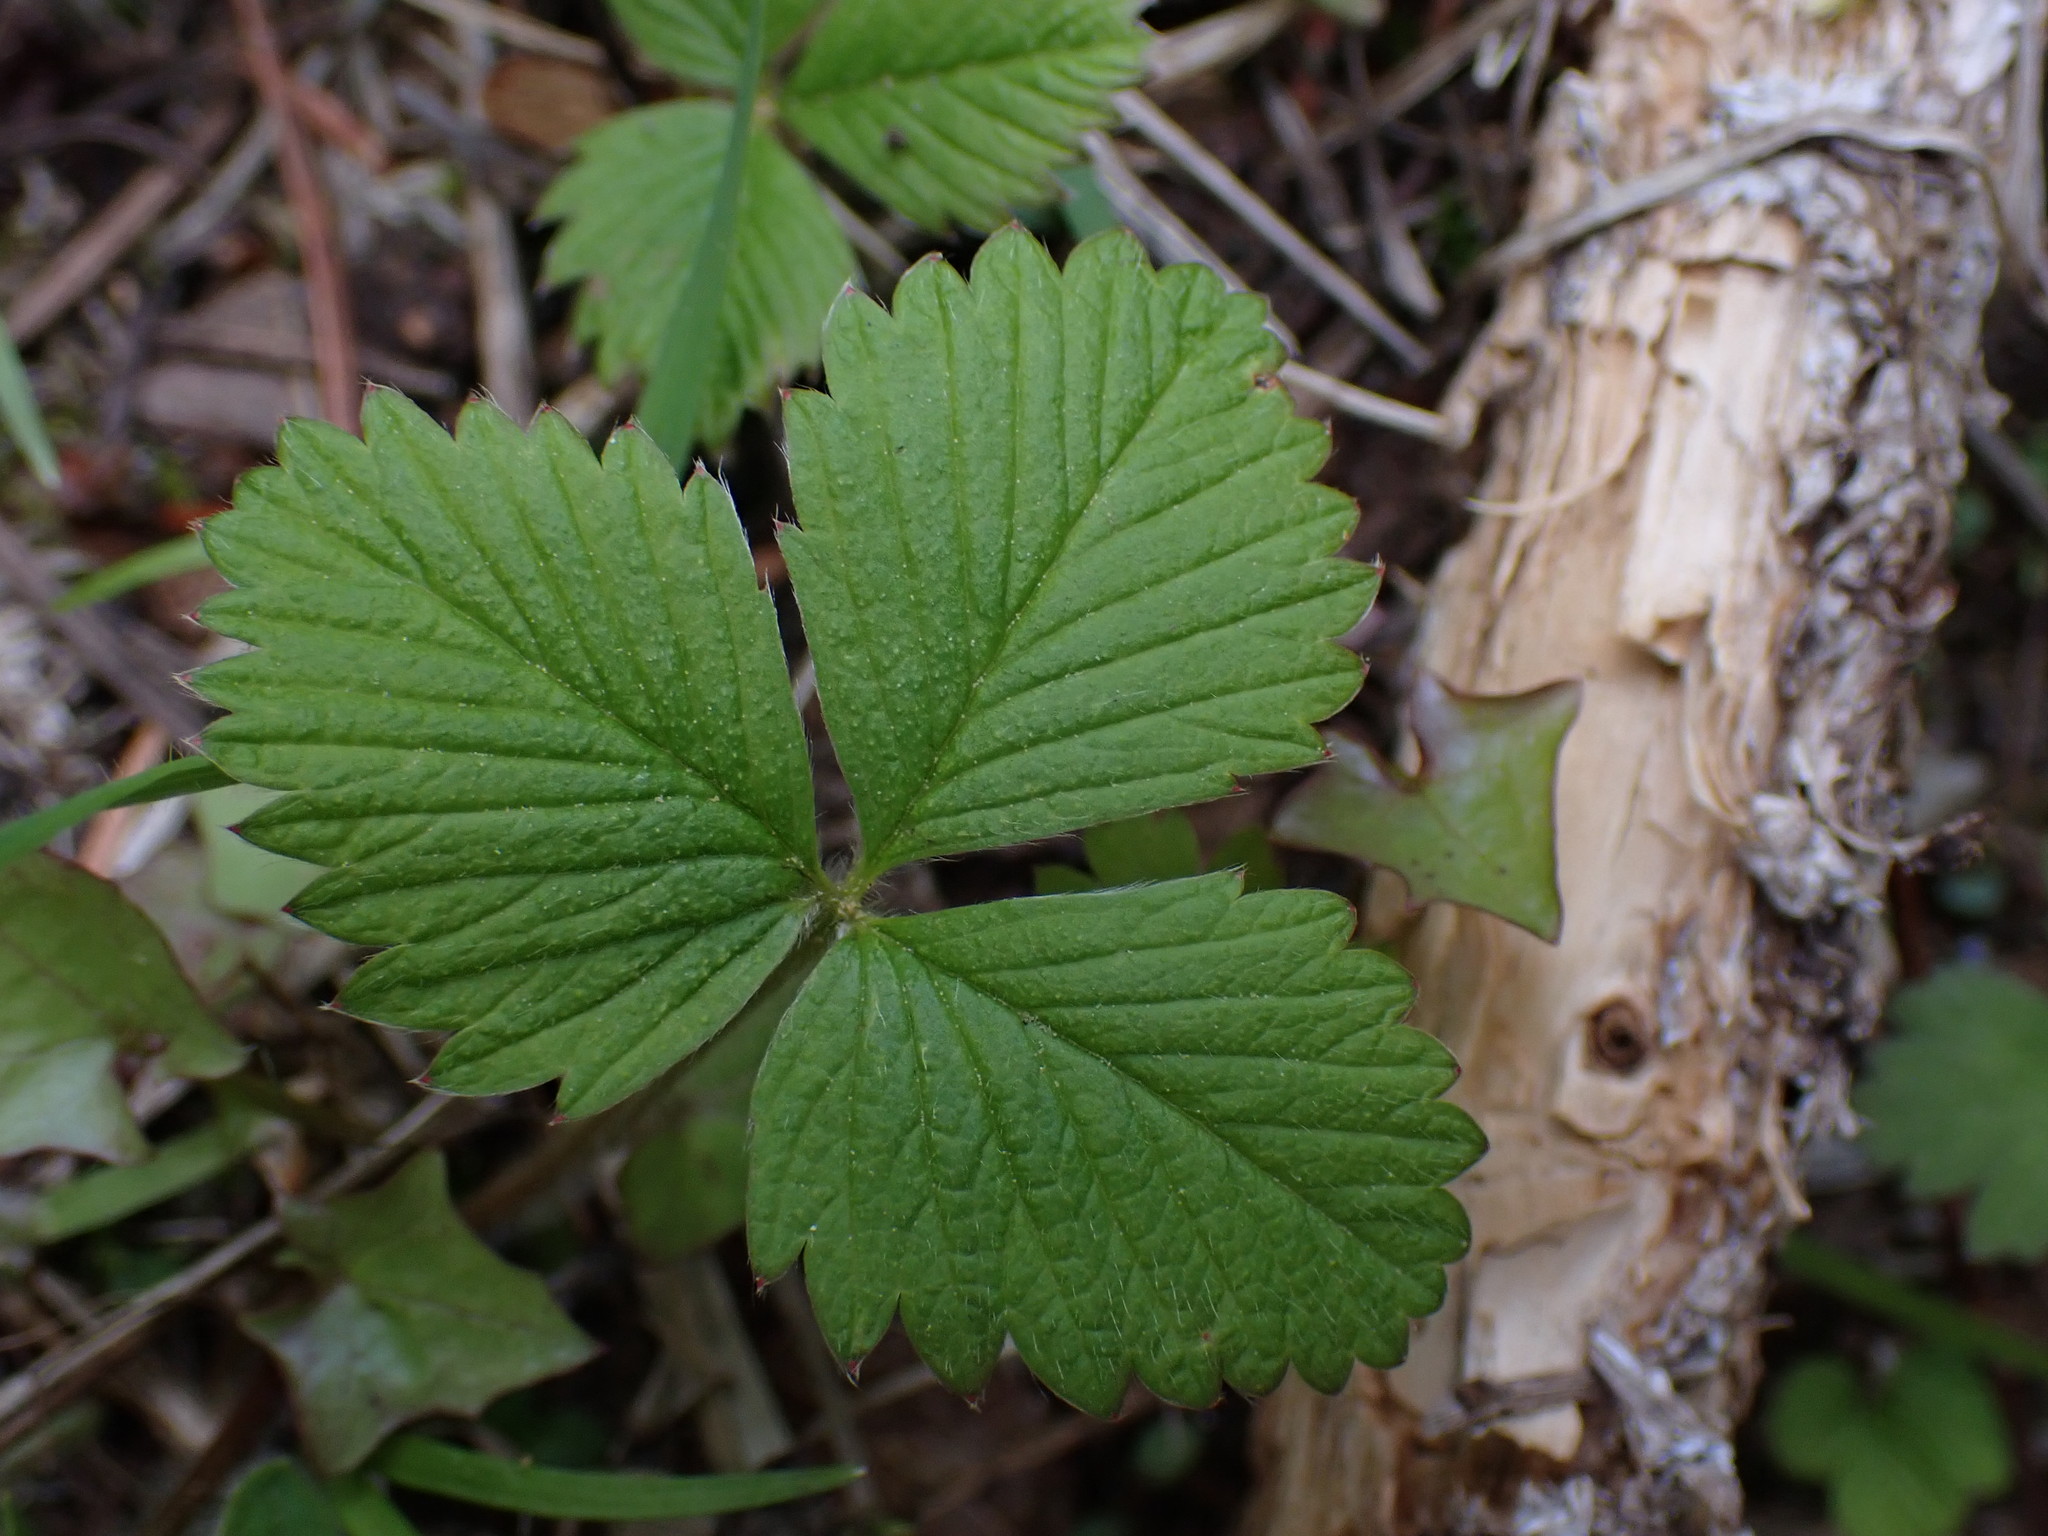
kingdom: Plantae
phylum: Tracheophyta
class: Magnoliopsida
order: Rosales
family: Rosaceae
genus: Fragaria
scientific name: Fragaria vesca
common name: Wild strawberry
